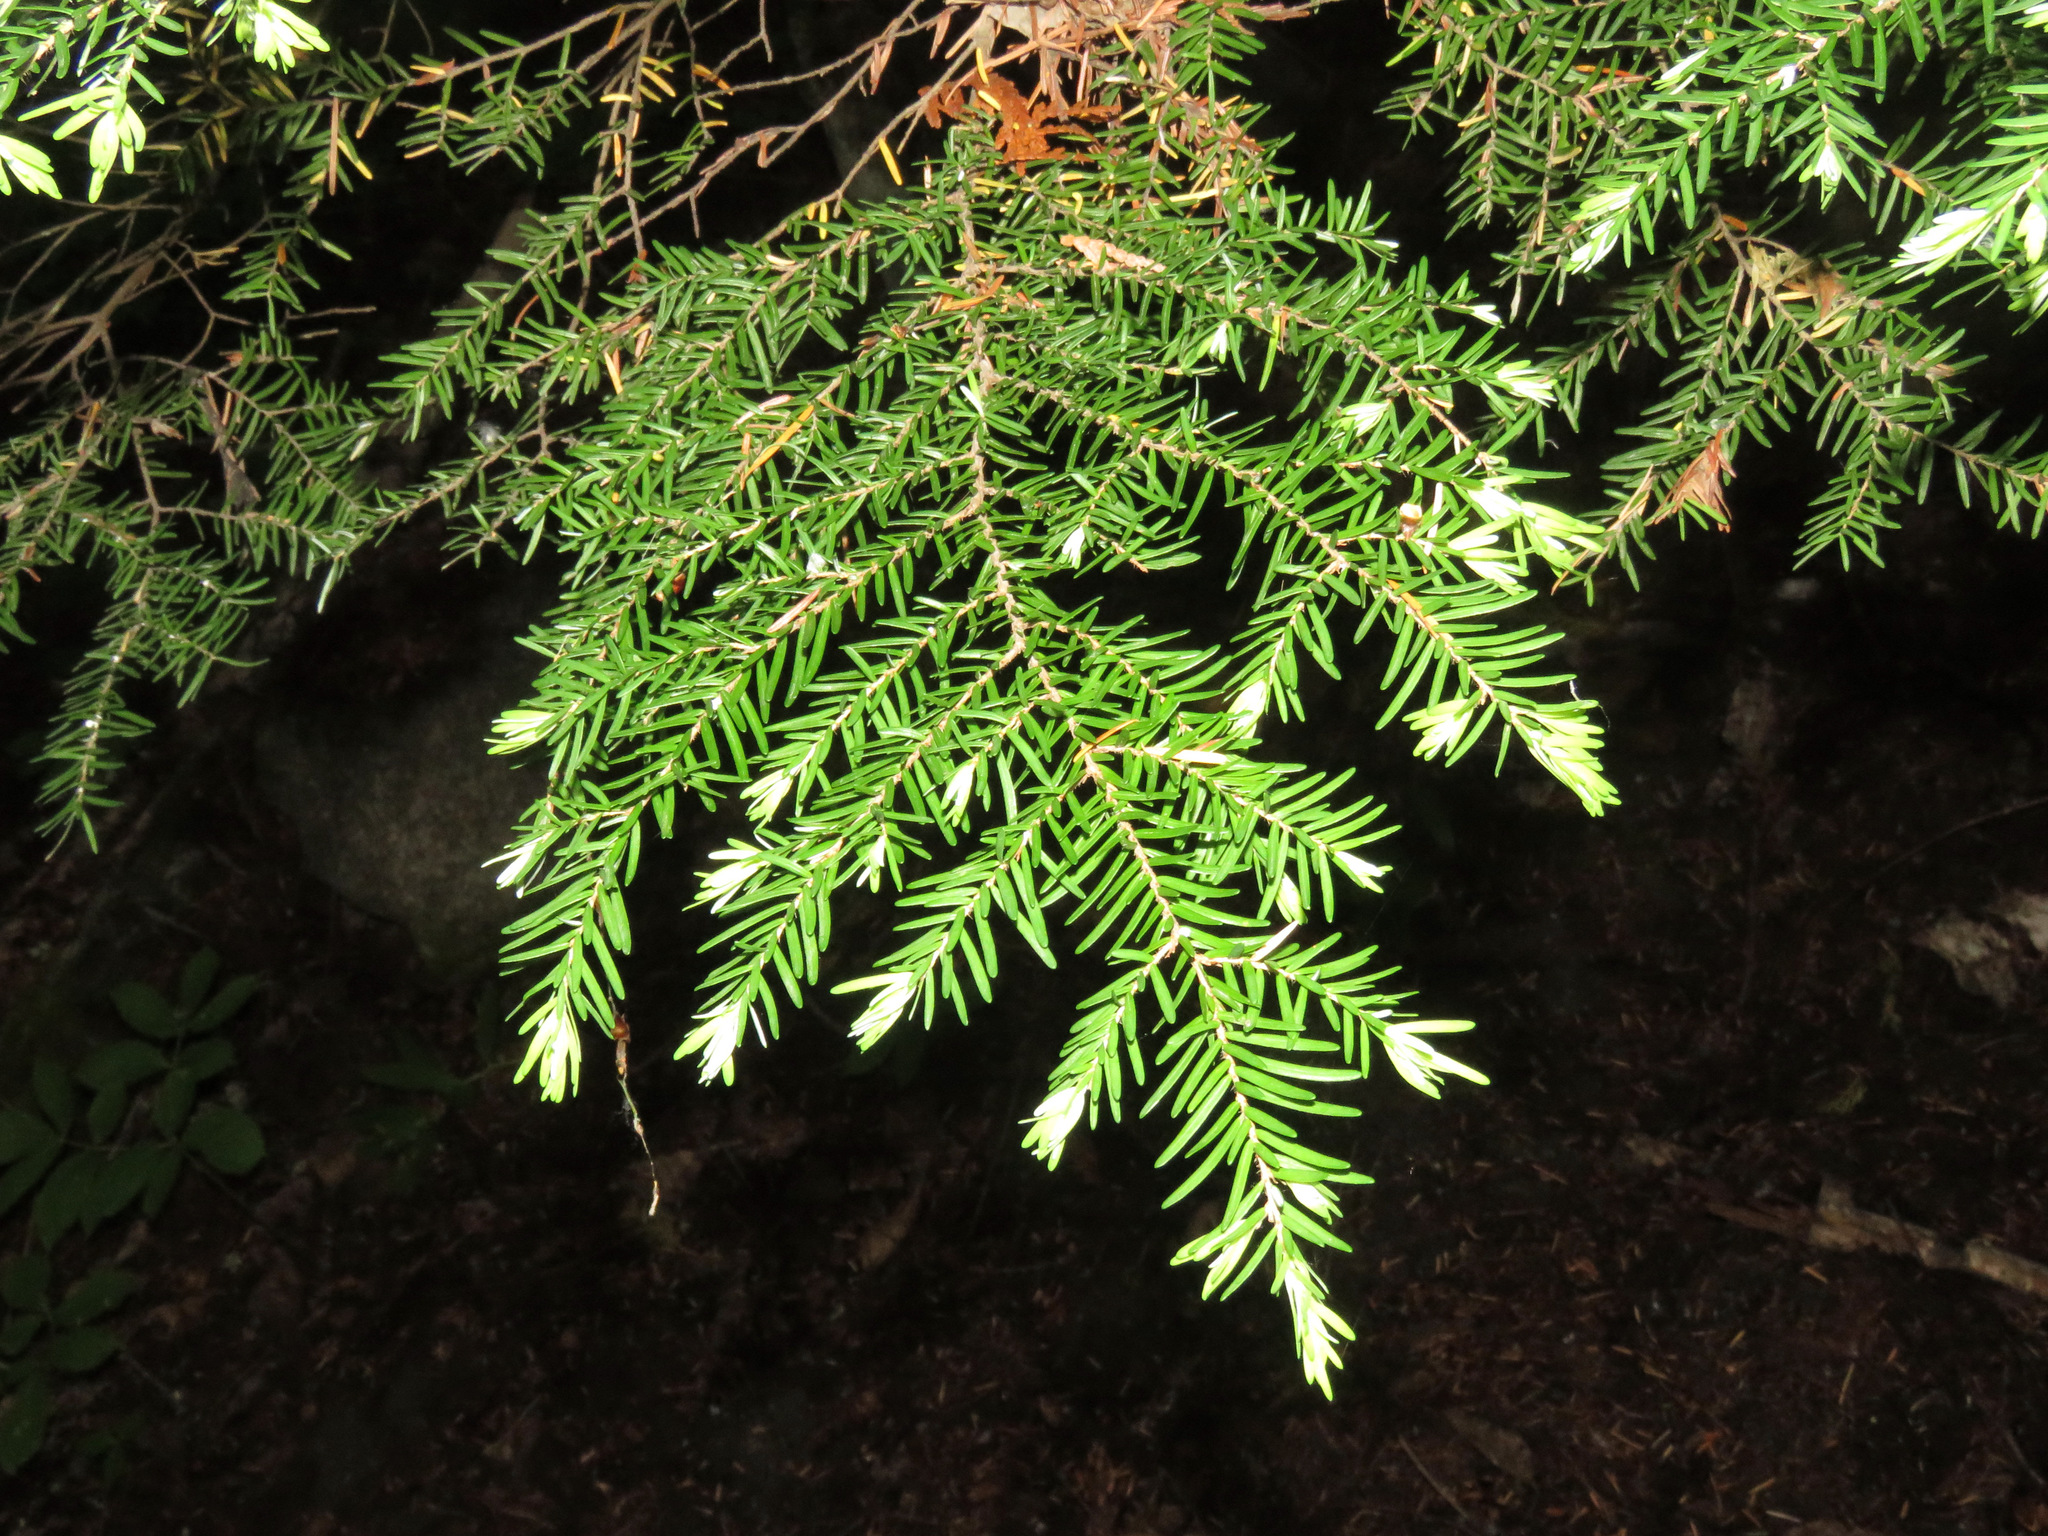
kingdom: Plantae
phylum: Tracheophyta
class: Pinopsida
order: Pinales
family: Pinaceae
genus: Tsuga
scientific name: Tsuga heterophylla
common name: Western hemlock
